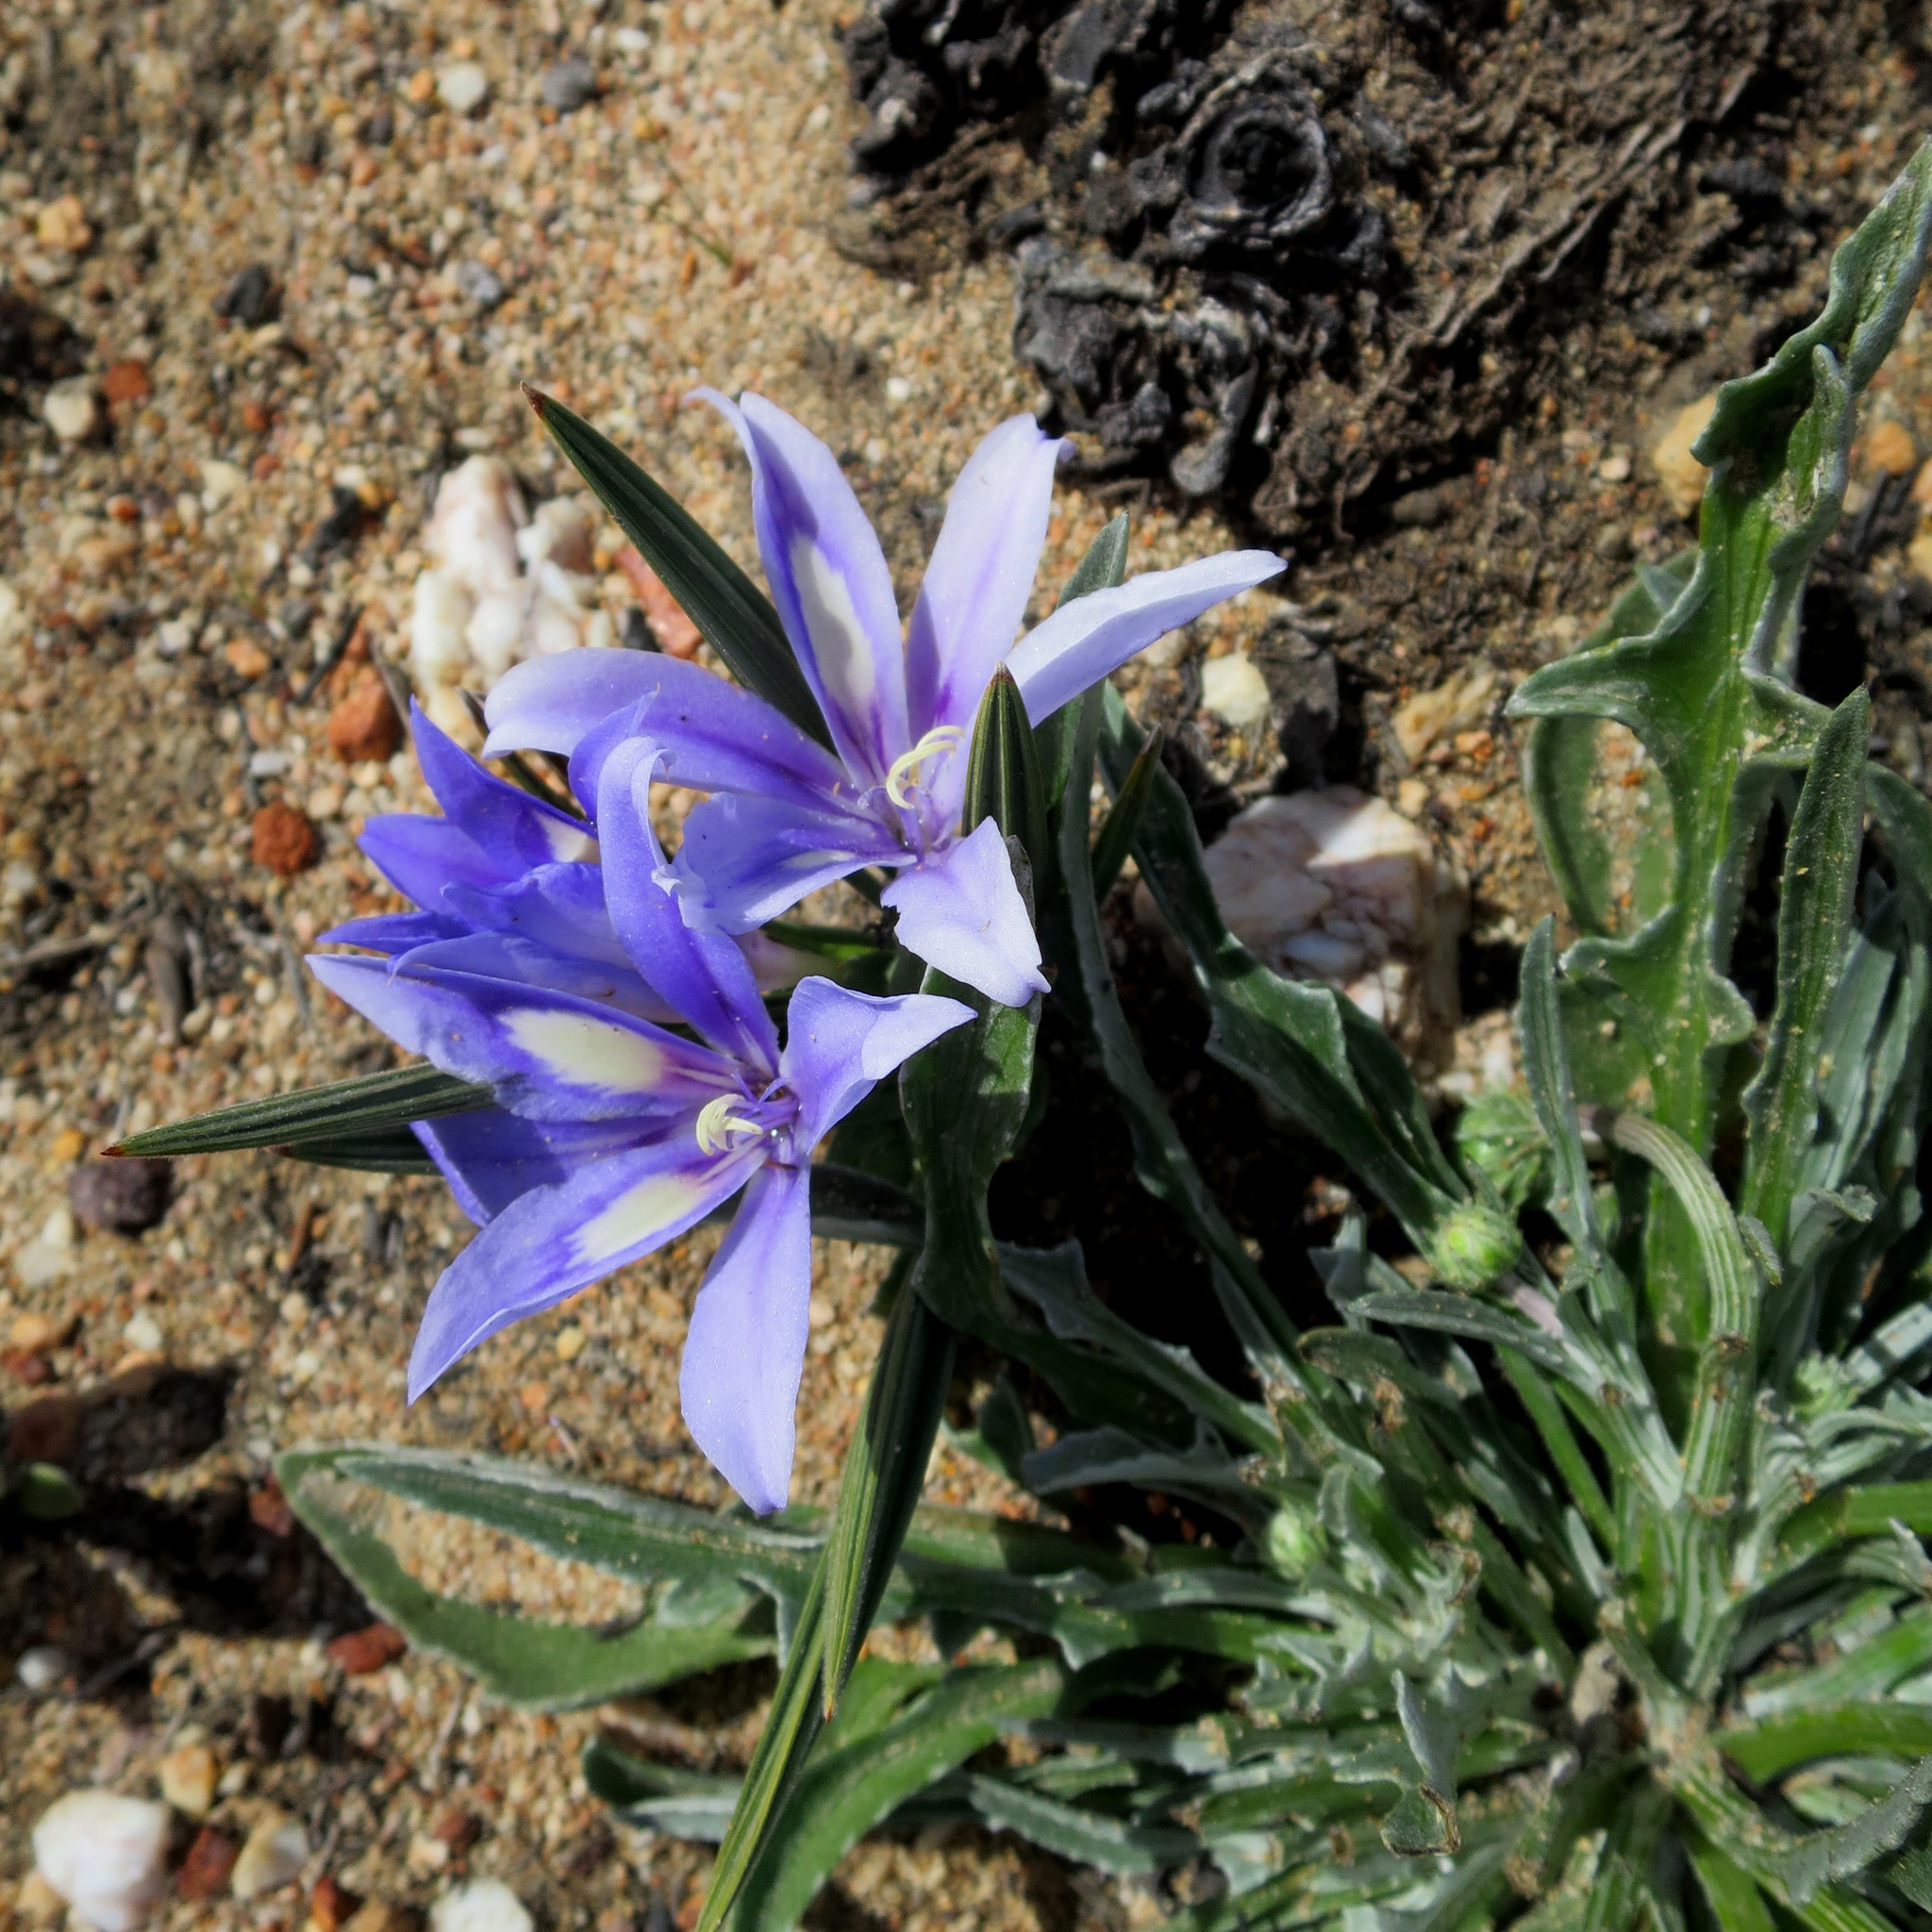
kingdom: Plantae
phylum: Tracheophyta
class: Liliopsida
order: Asparagales
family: Iridaceae
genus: Babiana
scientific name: Babiana sambucina
